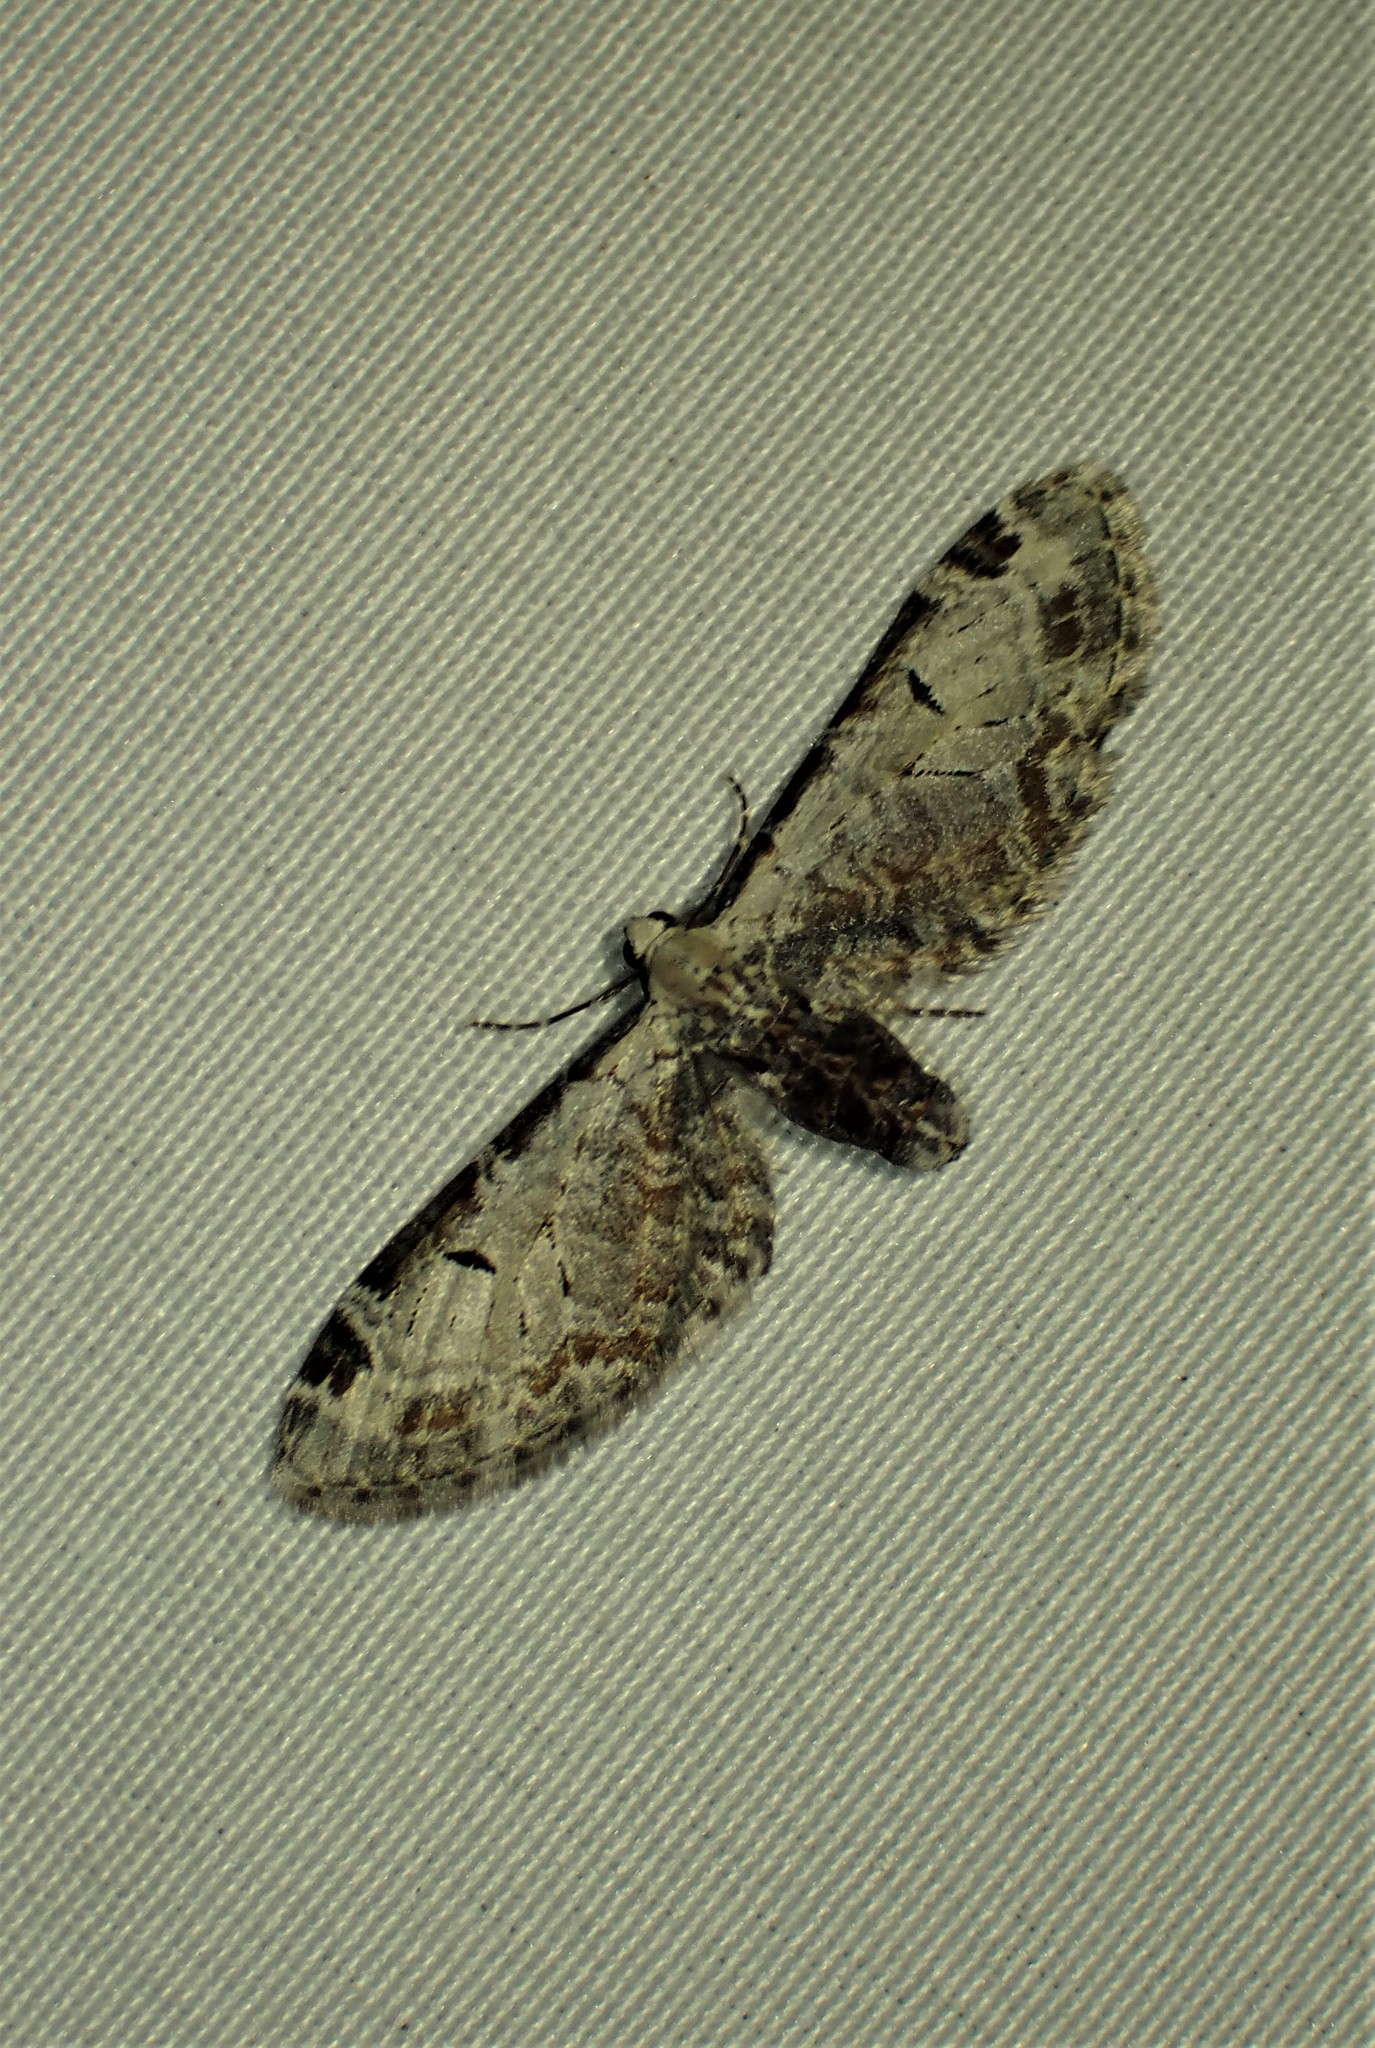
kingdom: Animalia
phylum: Arthropoda
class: Insecta
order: Lepidoptera
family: Geometridae
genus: Eupithecia
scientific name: Eupithecia ravocostaliata
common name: Great varigated pug
